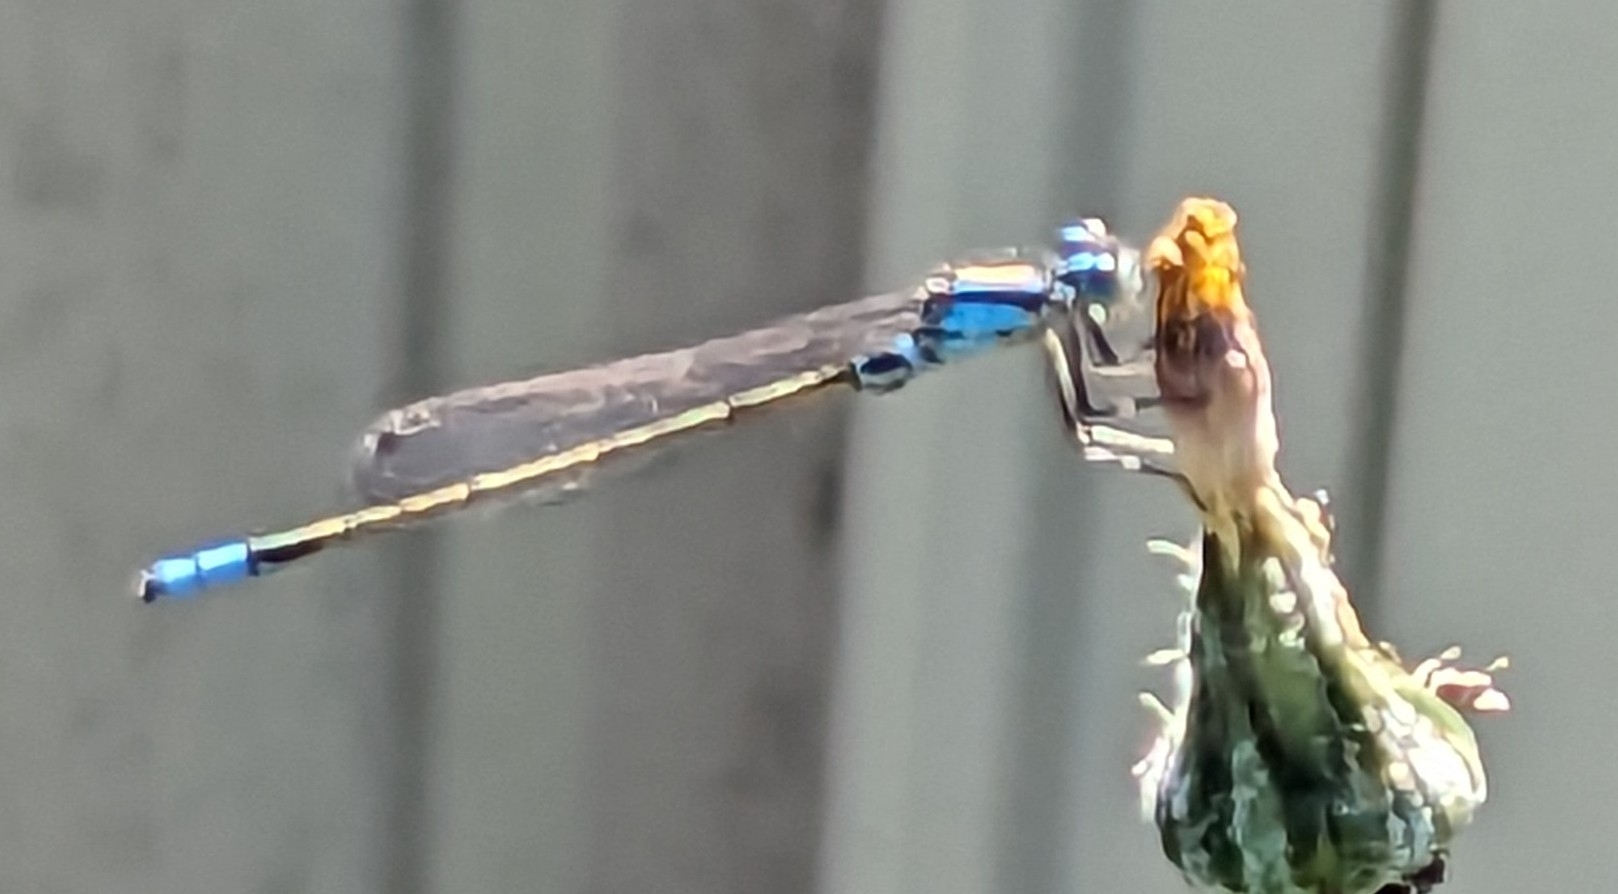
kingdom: Animalia
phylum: Arthropoda
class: Insecta
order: Odonata
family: Coenagrionidae
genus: Ischnura
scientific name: Ischnura heterosticta
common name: Common bluetail
